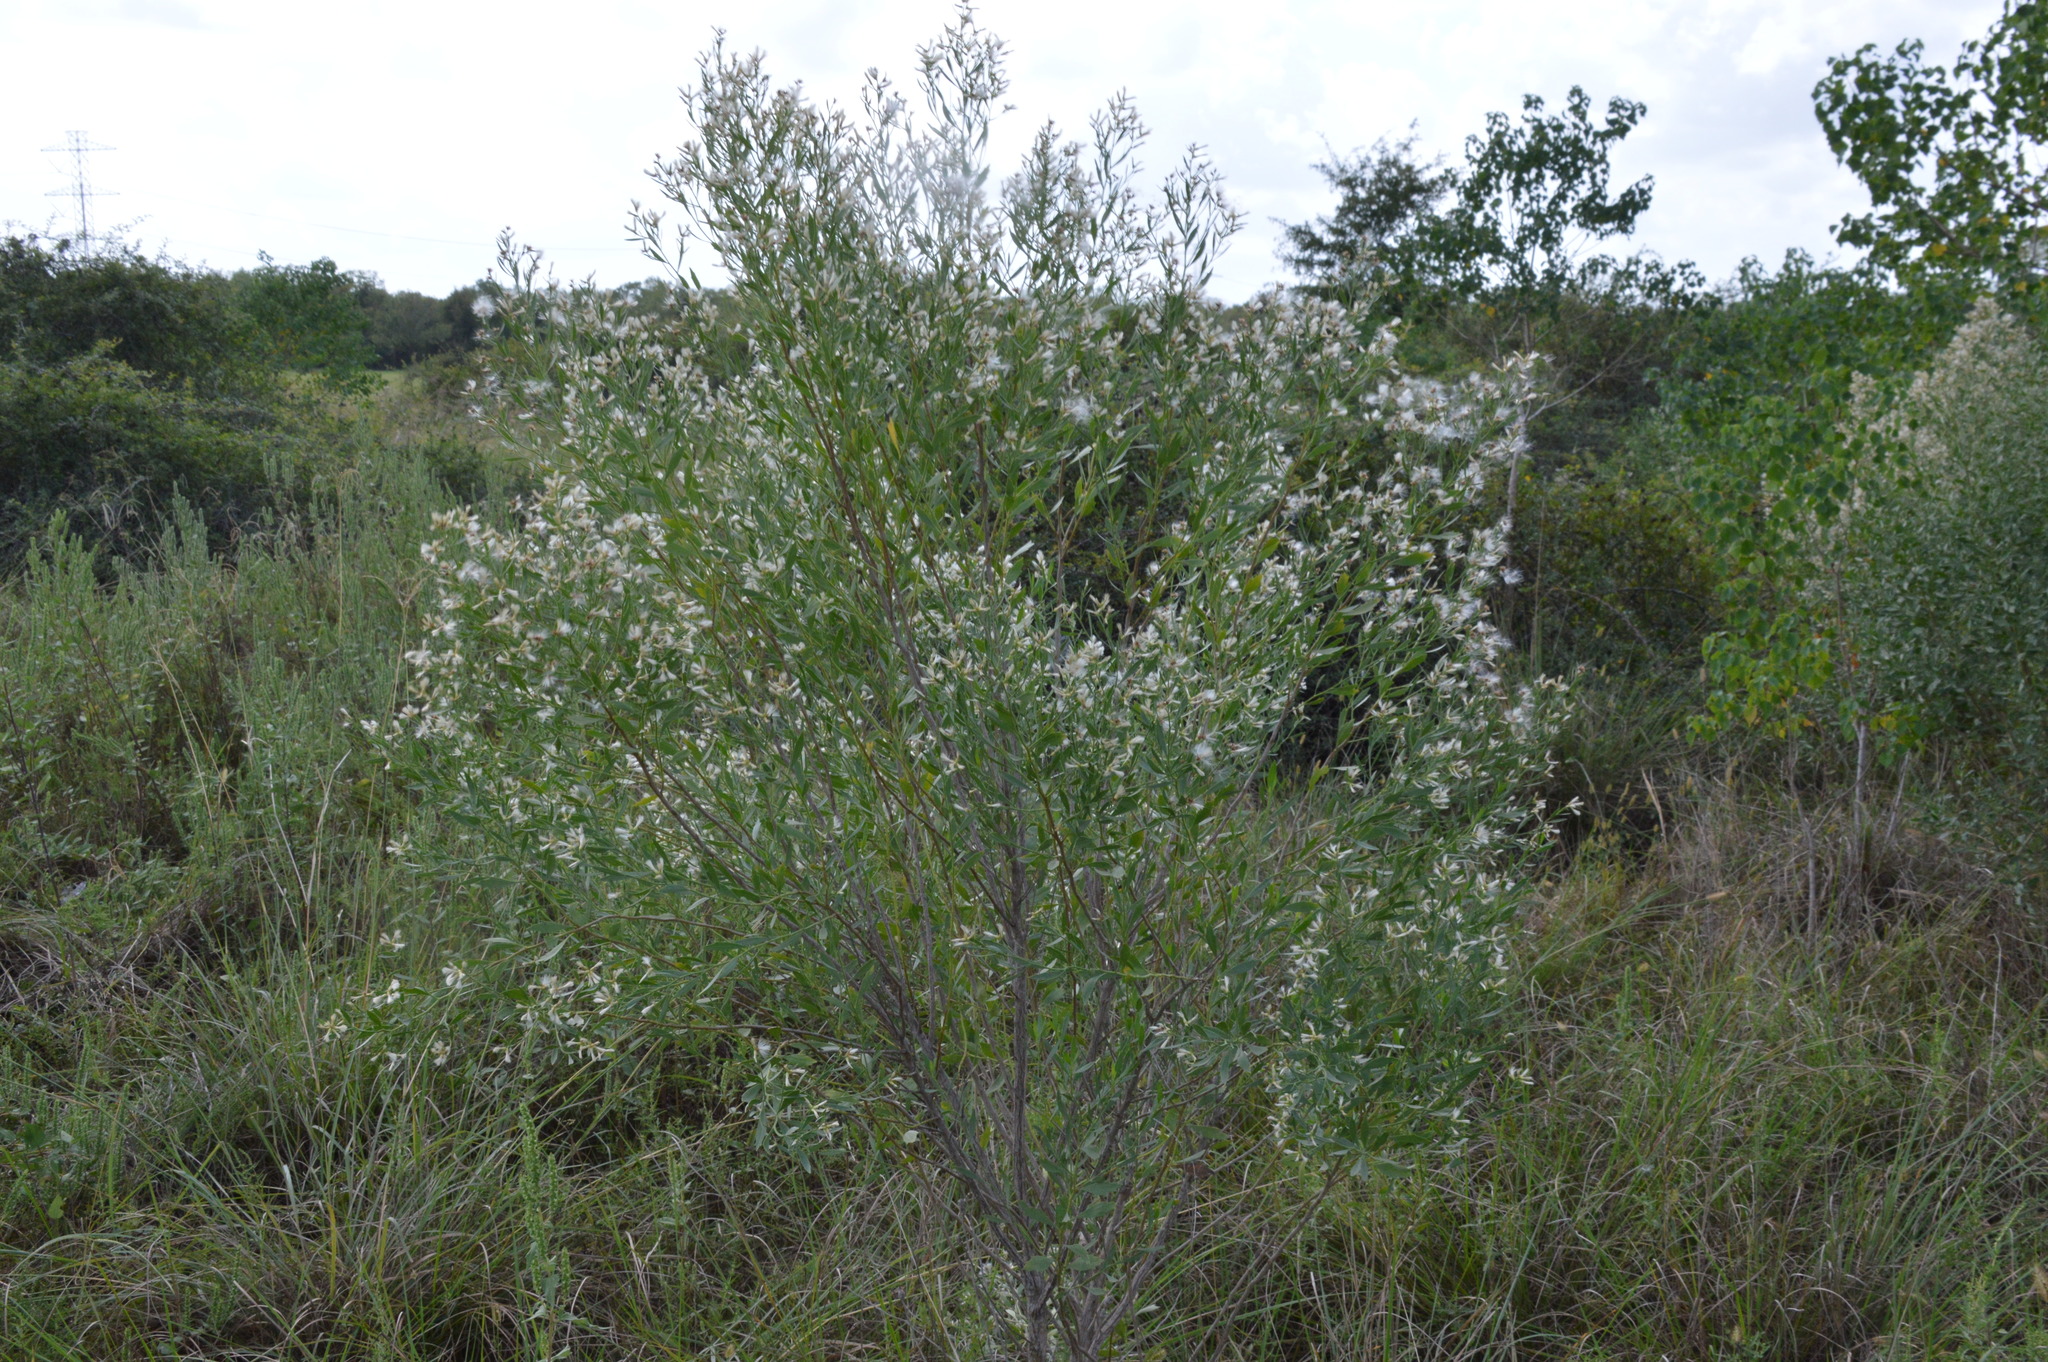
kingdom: Plantae
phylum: Tracheophyta
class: Magnoliopsida
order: Asterales
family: Asteraceae
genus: Baccharis
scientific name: Baccharis halimifolia
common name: Eastern baccharis
